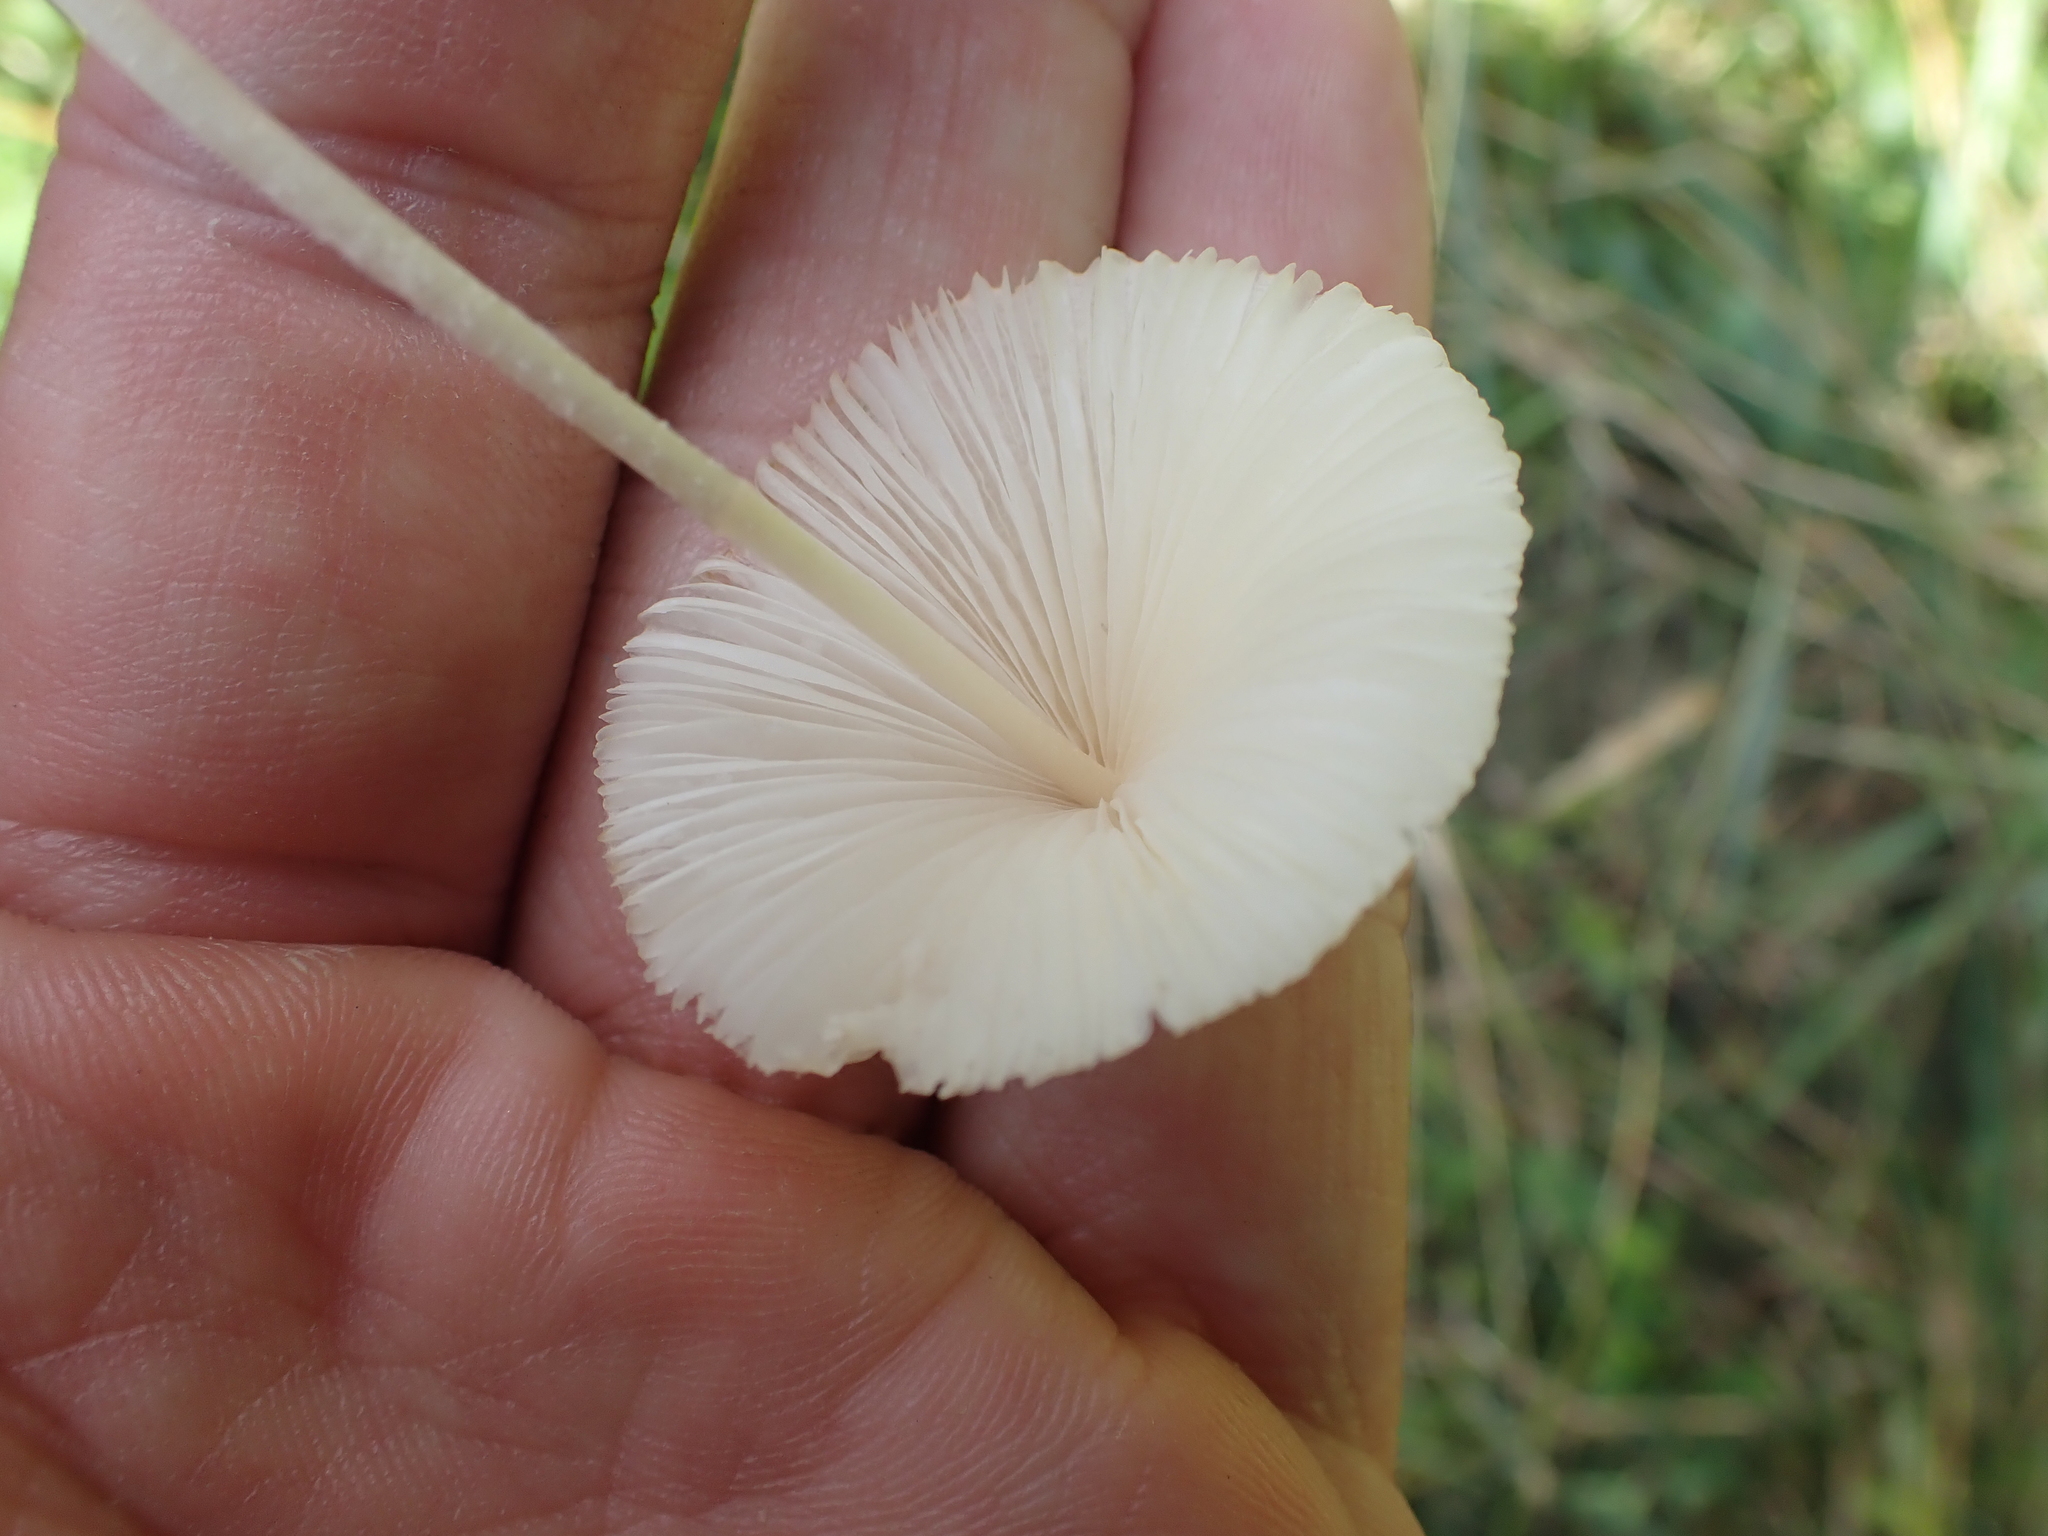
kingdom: Fungi
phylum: Basidiomycota
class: Agaricomycetes
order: Agaricales
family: Bolbitiaceae
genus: Conocybe
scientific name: Conocybe apala
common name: Milky conecap
